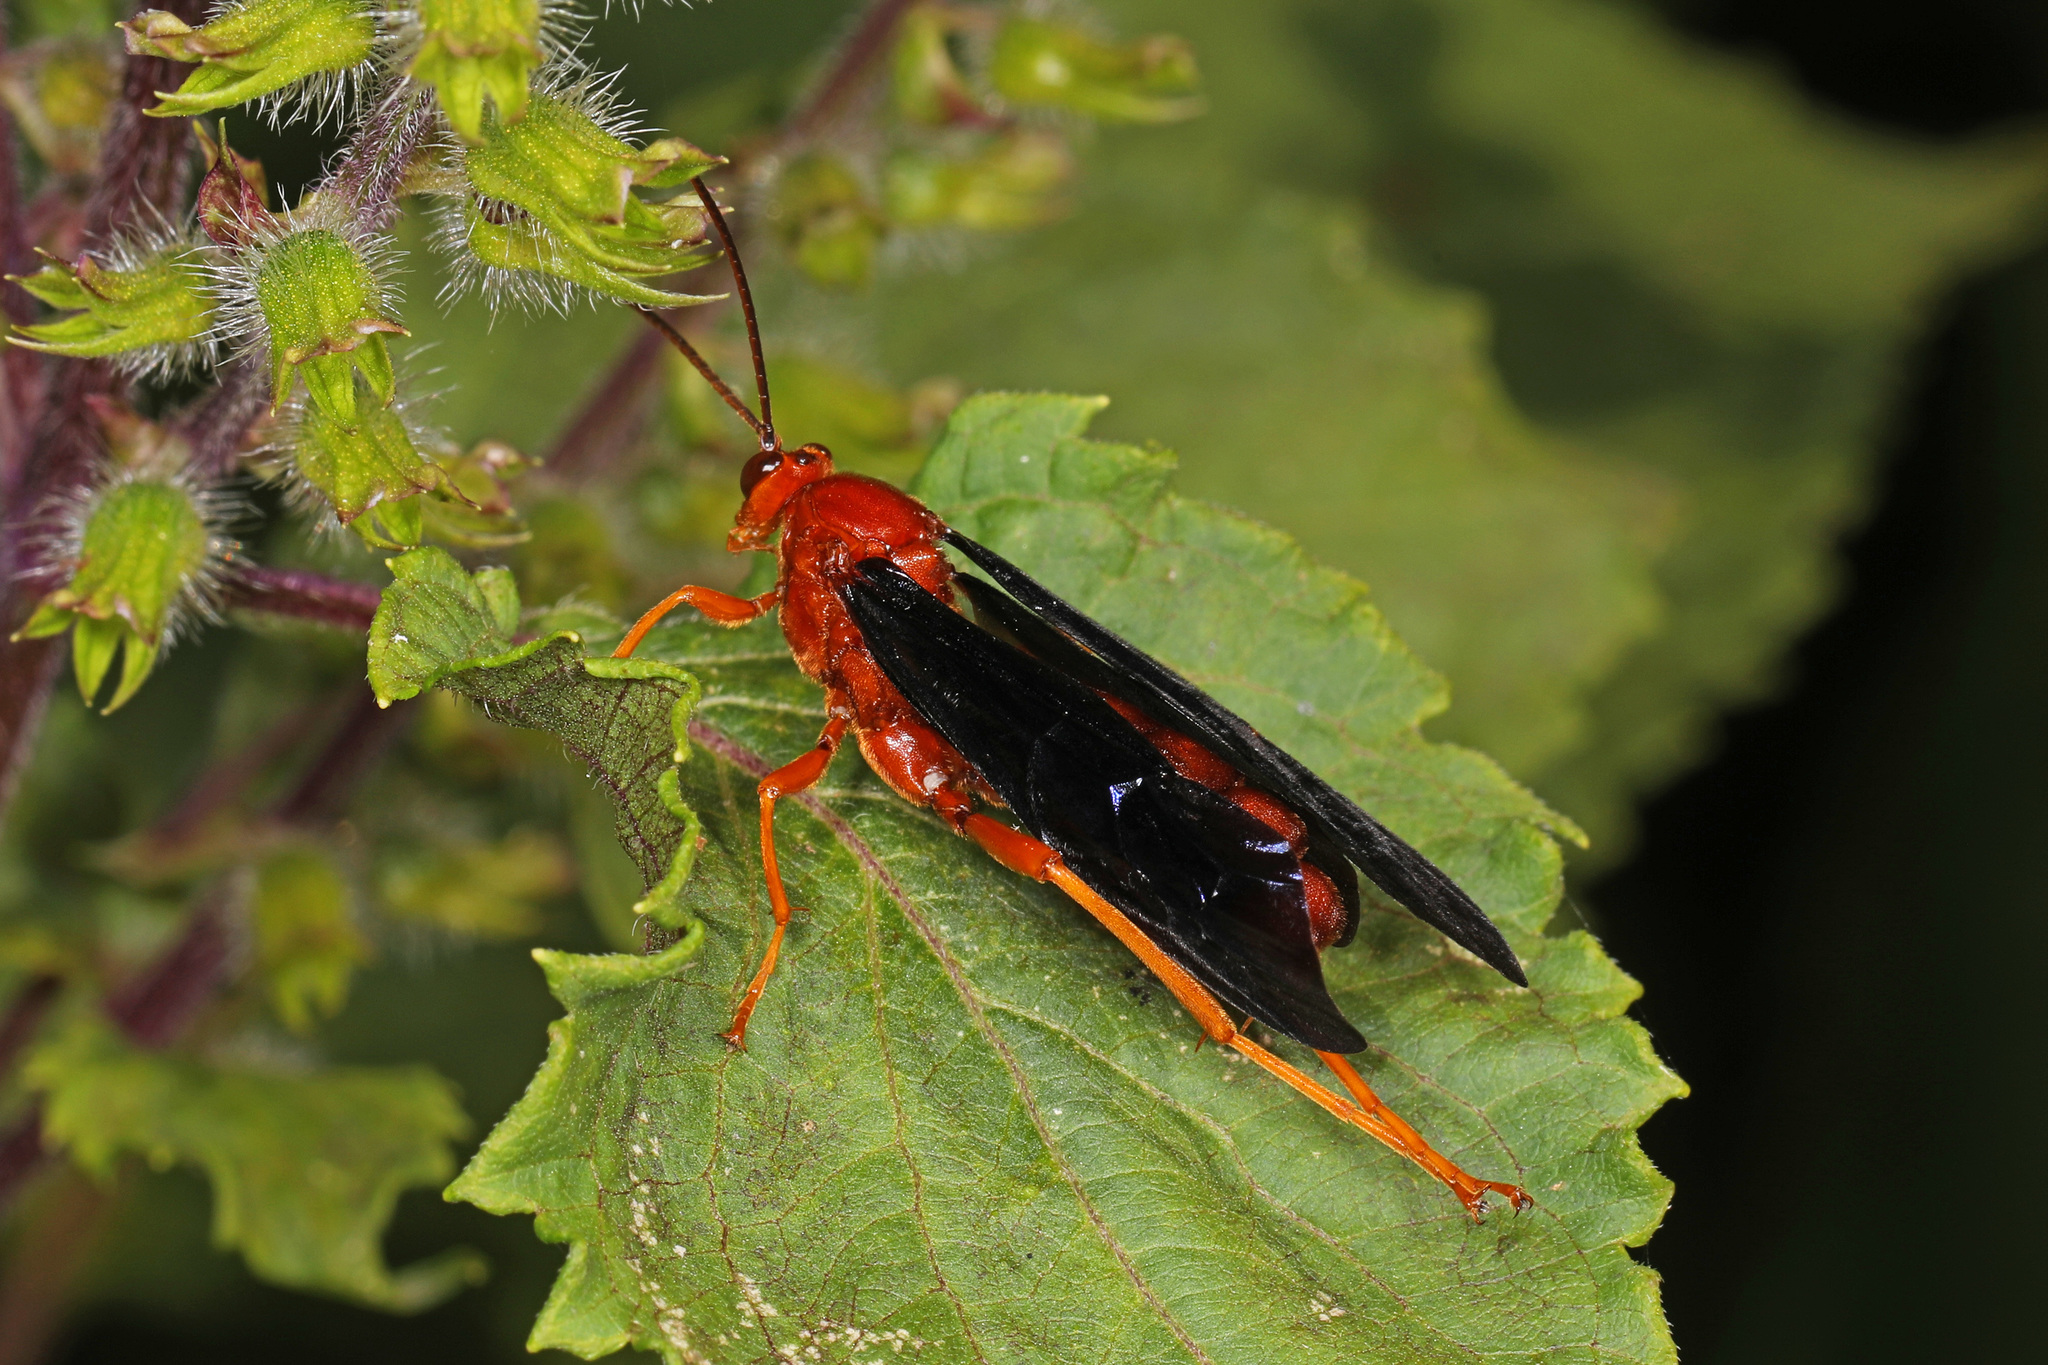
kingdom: Animalia
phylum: Arthropoda
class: Insecta
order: Hymenoptera
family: Ichneumonidae
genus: Trogus
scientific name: Trogus pennator
